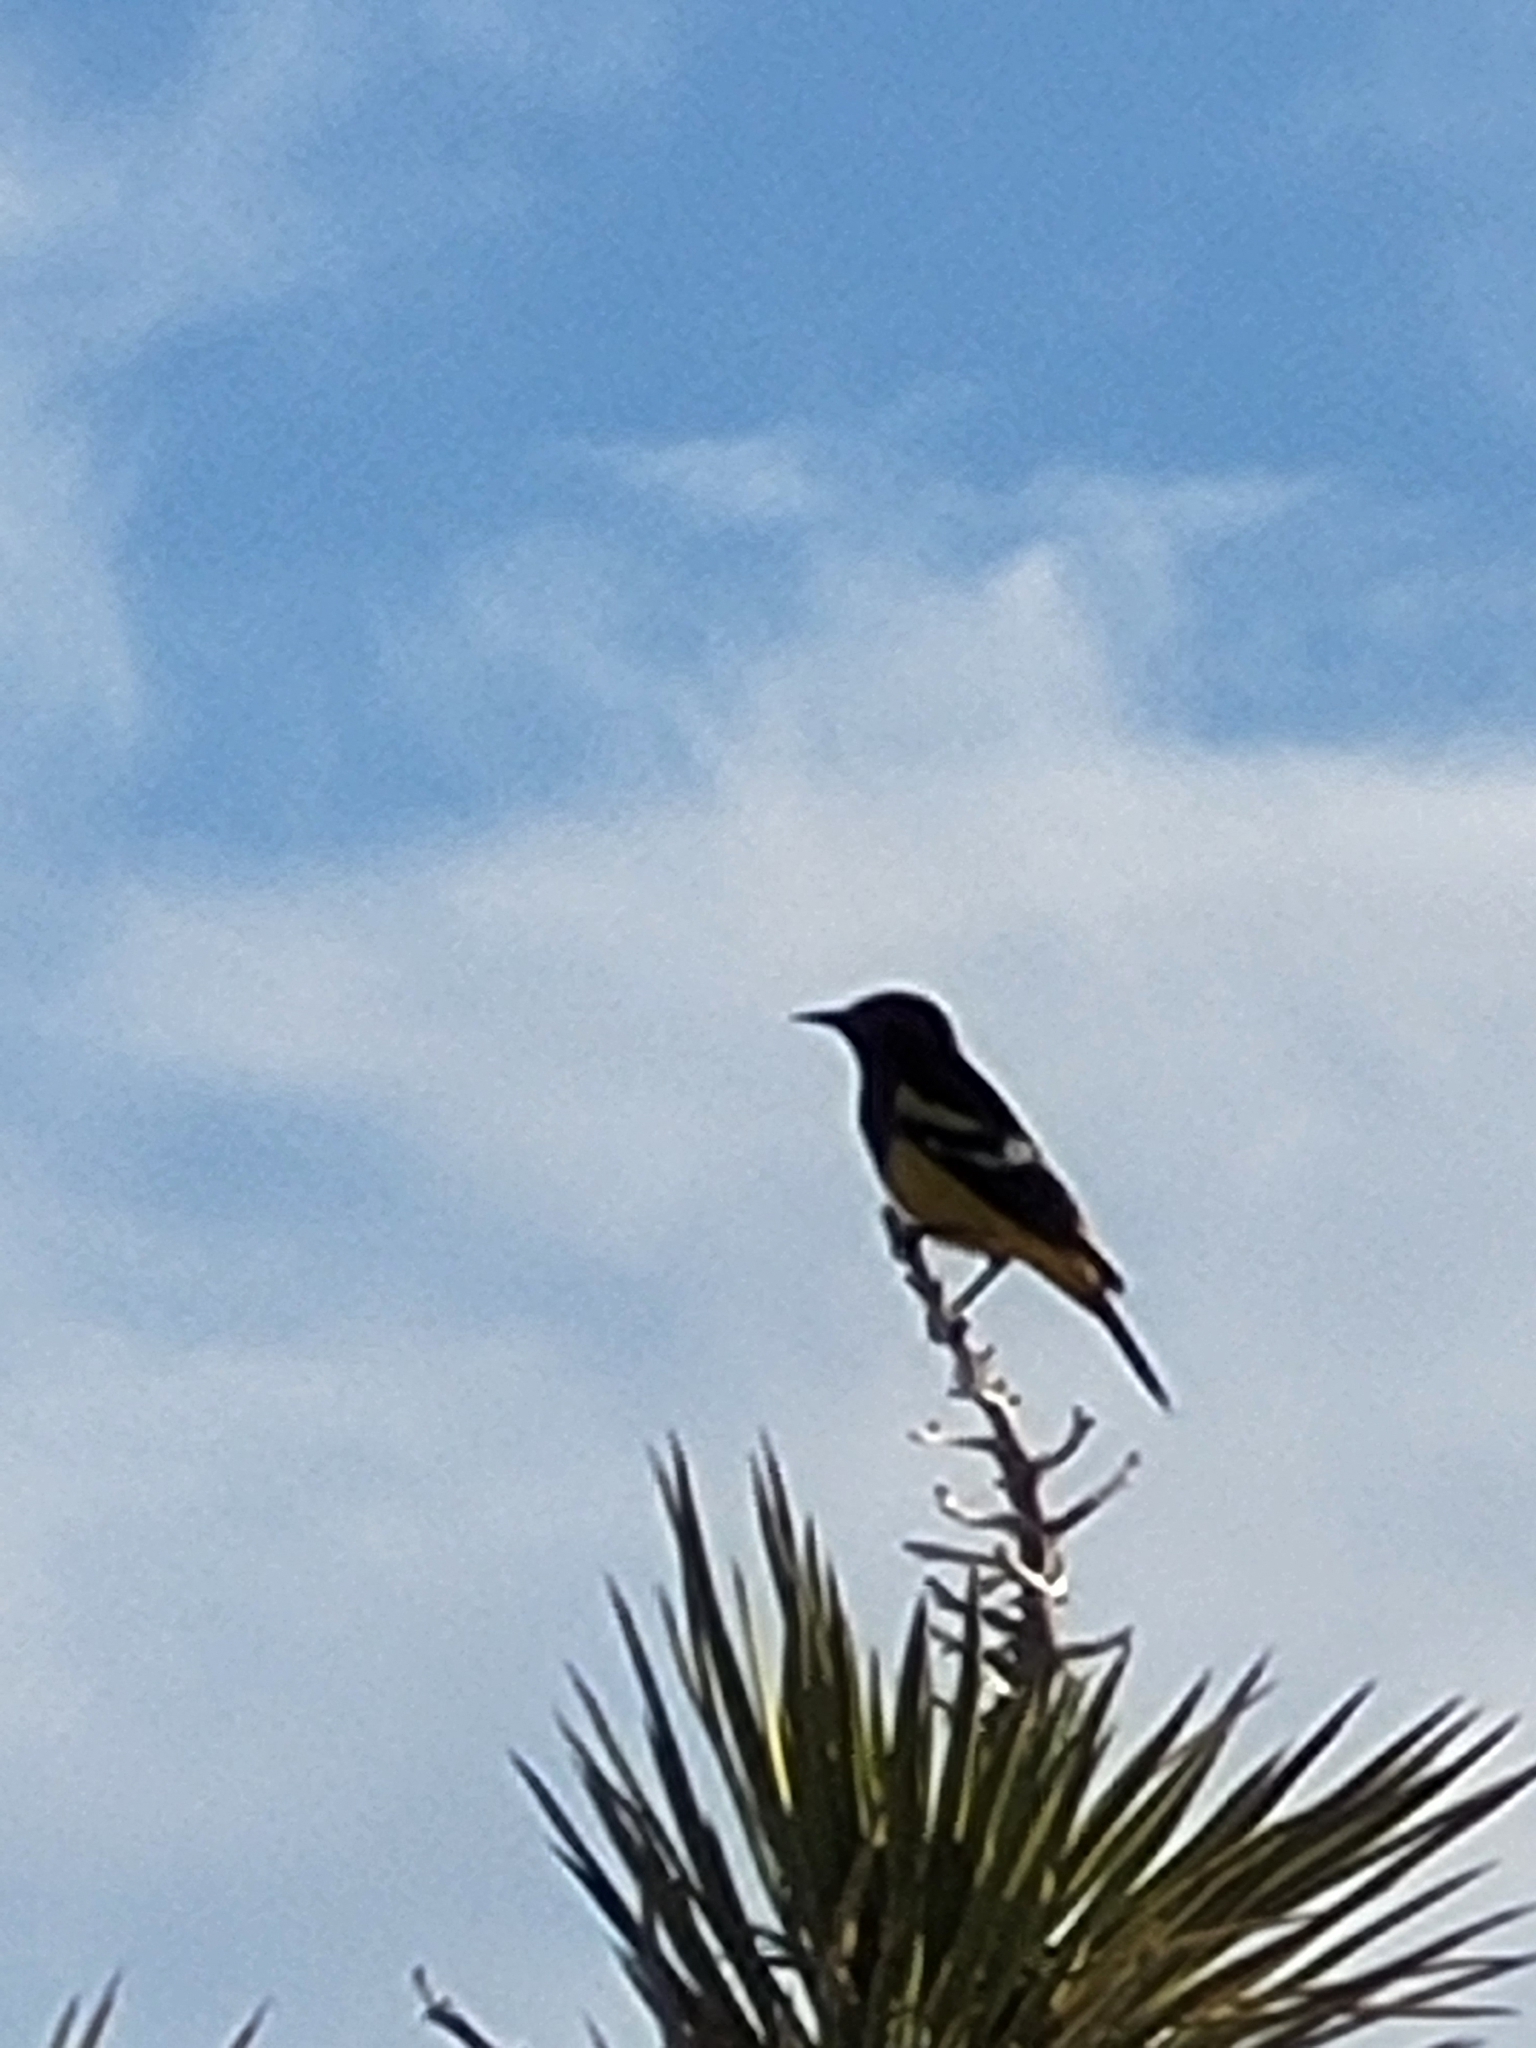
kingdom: Animalia
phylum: Chordata
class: Aves
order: Passeriformes
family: Icteridae
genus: Icterus
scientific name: Icterus parisorum
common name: Scott's oriole
